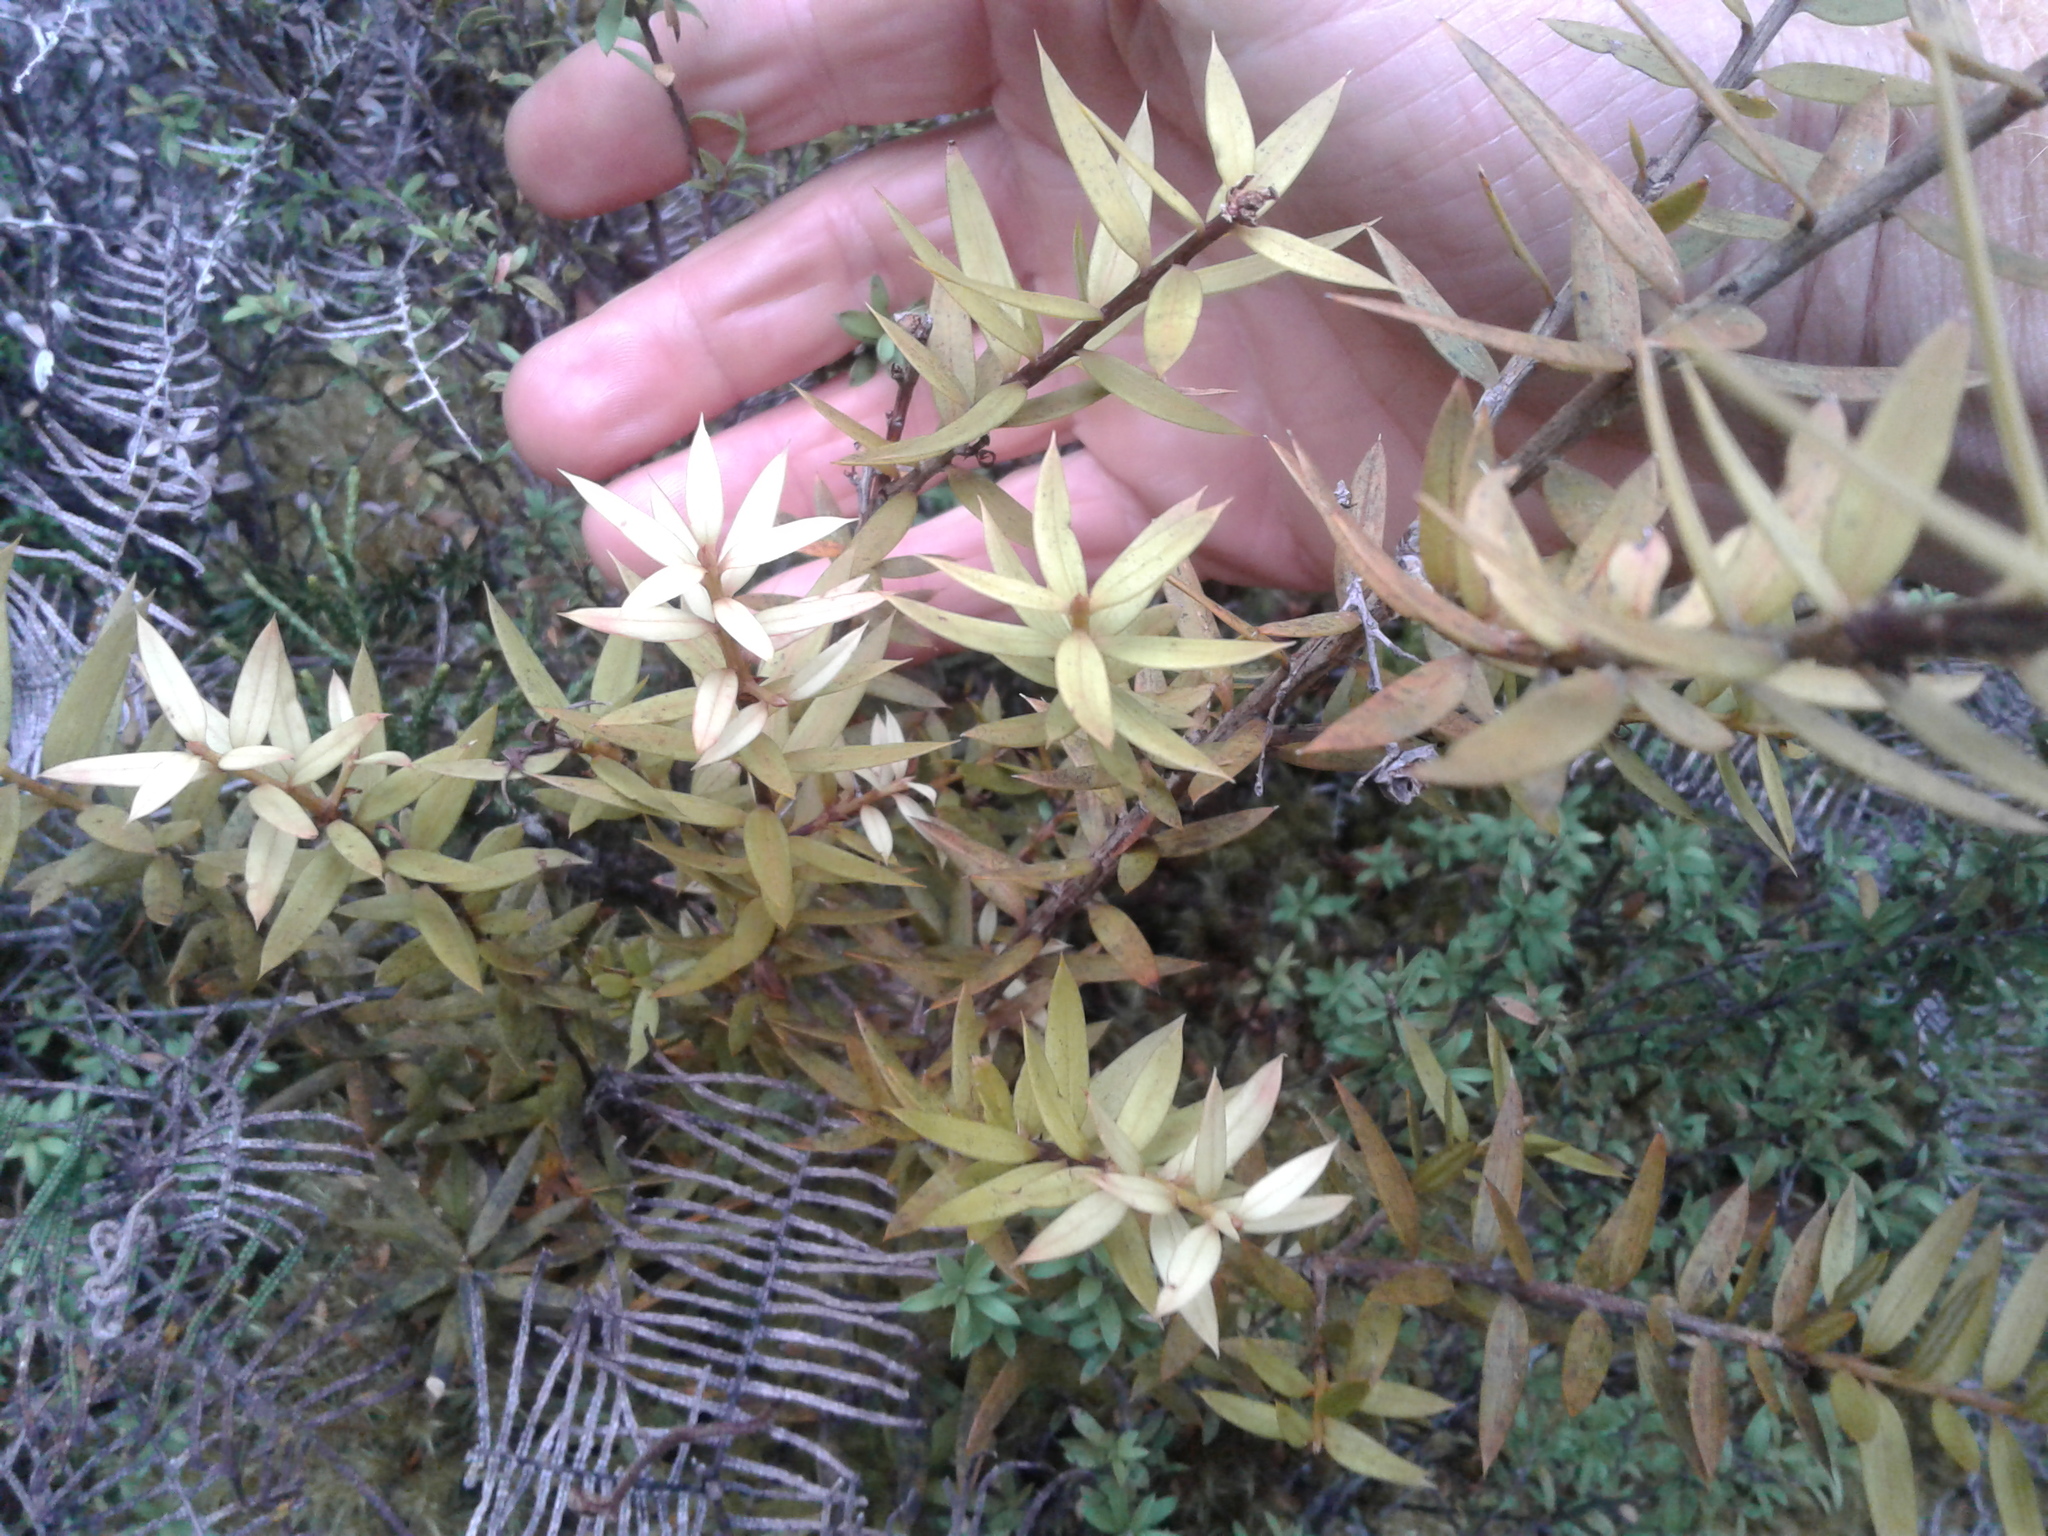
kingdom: Plantae
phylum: Tracheophyta
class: Magnoliopsida
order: Ericales
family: Ericaceae
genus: Archeria
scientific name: Archeria traversii
